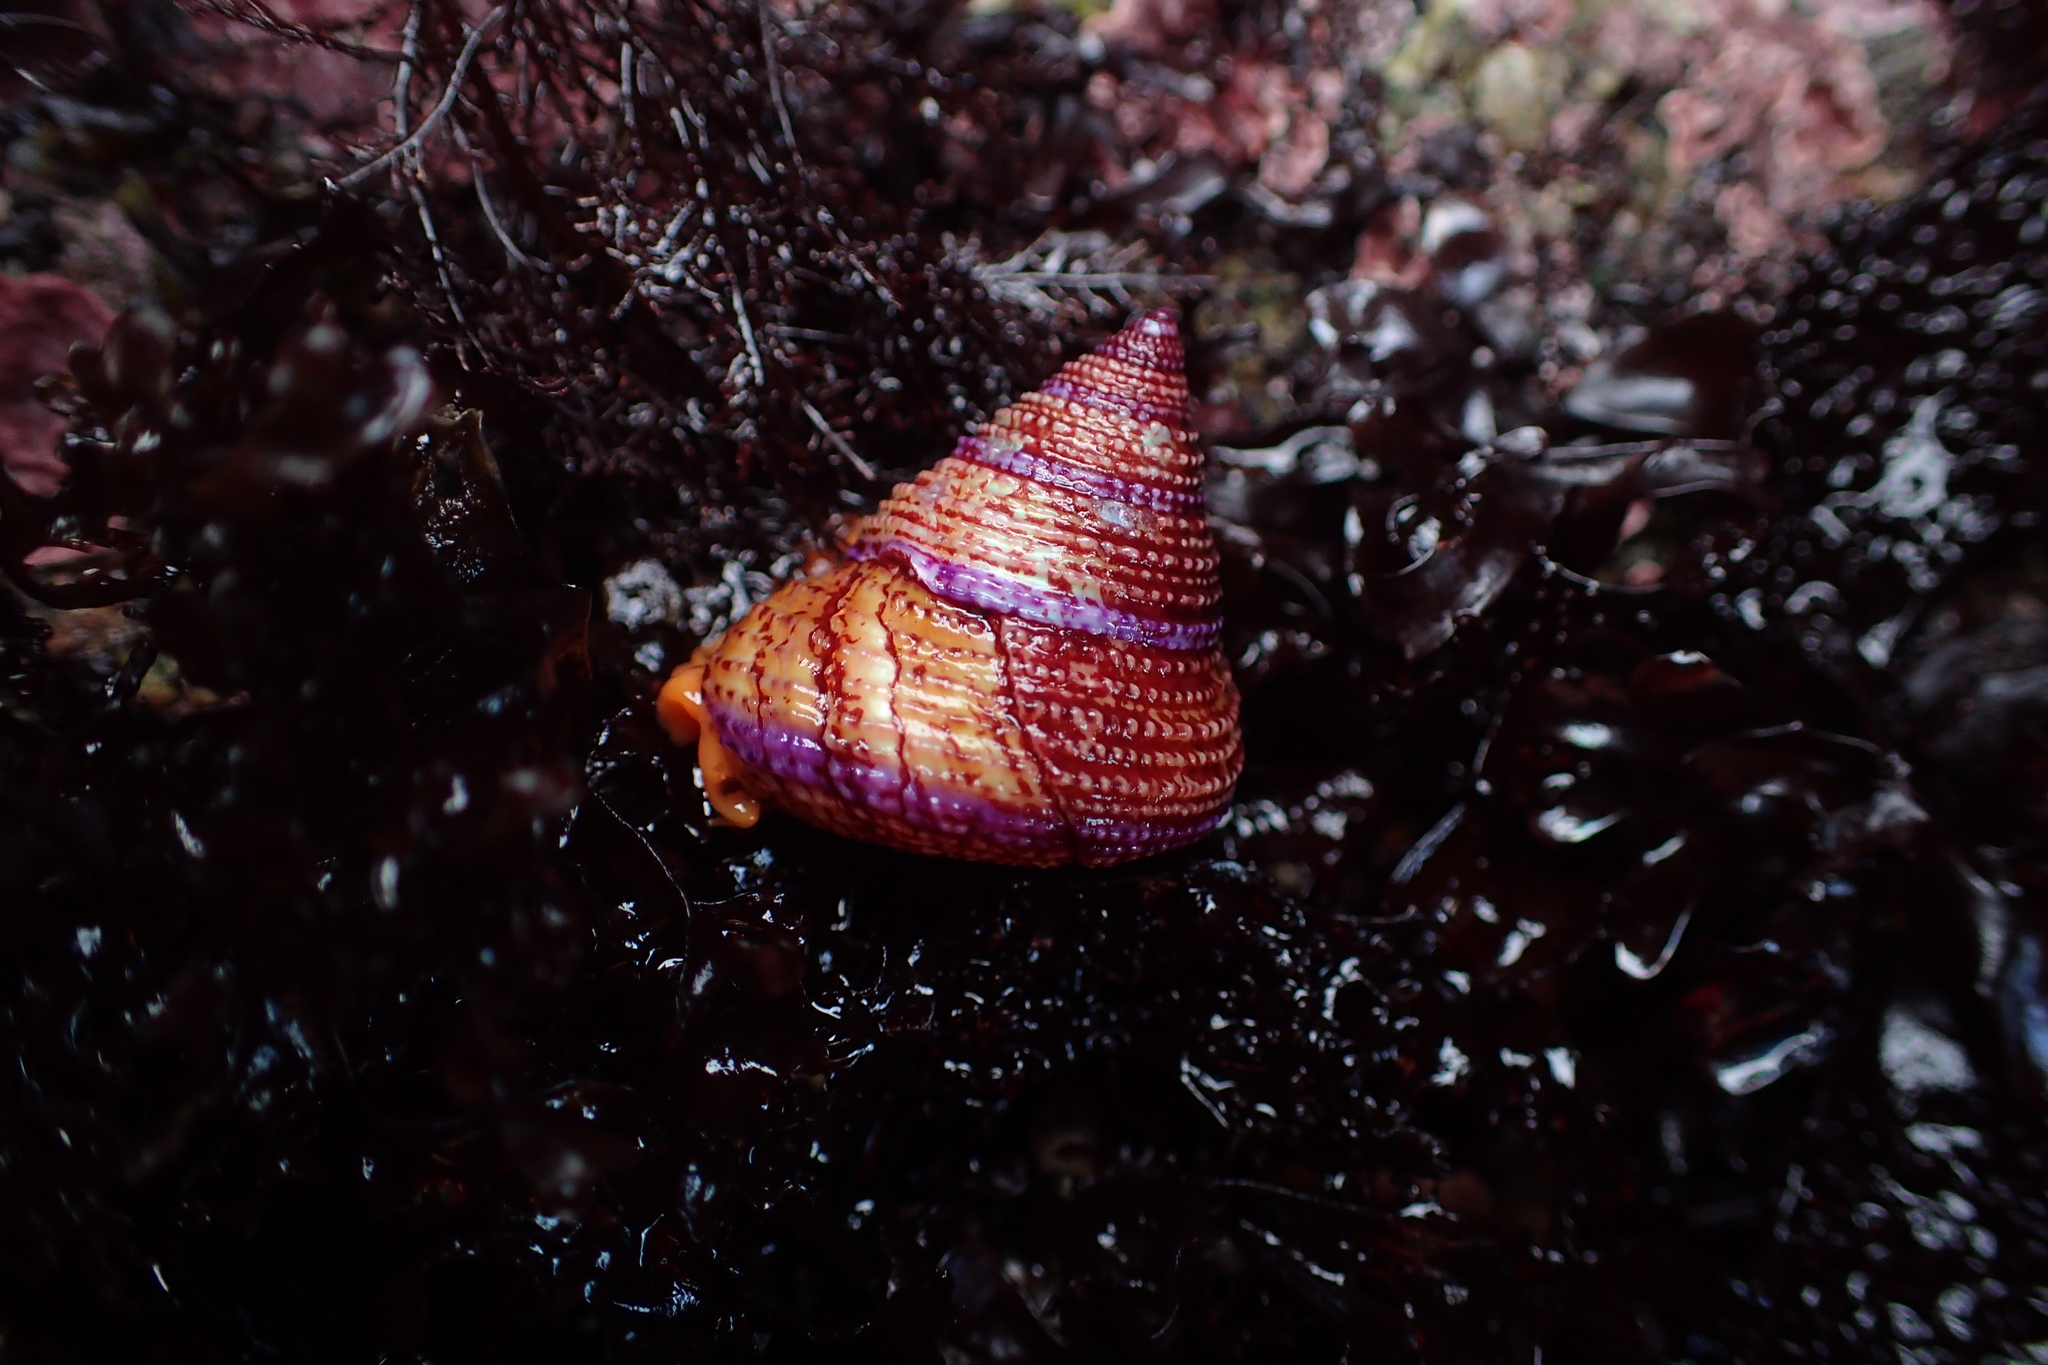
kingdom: Animalia
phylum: Mollusca
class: Gastropoda
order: Trochida
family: Calliostomatidae
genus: Calliostoma
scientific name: Calliostoma annulatum
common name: Blue-ring topsnail
